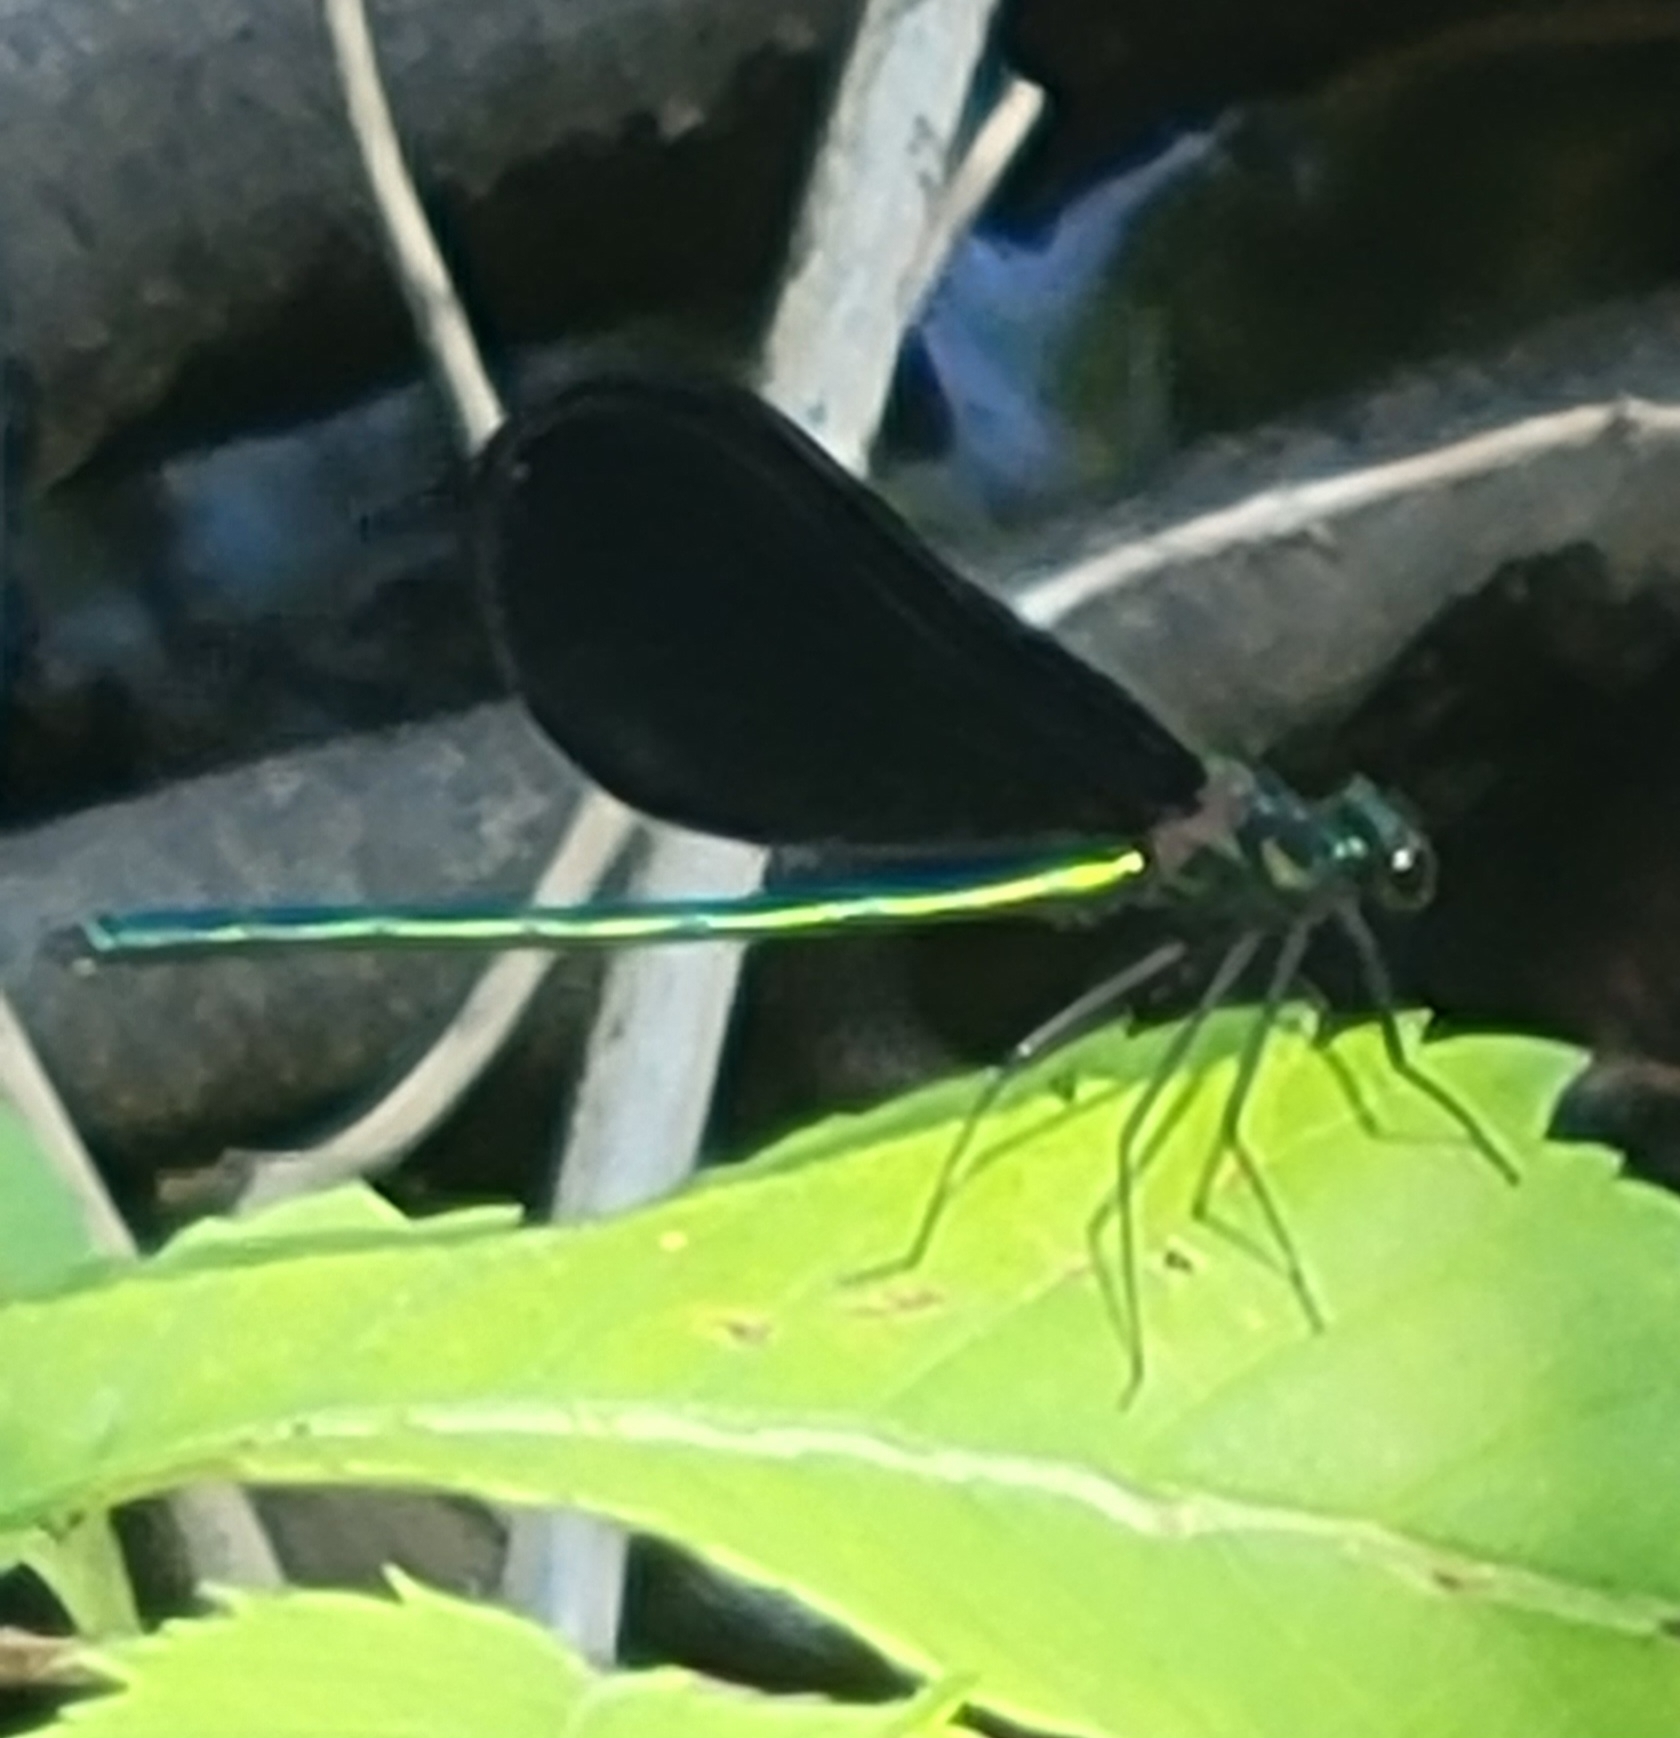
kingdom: Animalia
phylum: Arthropoda
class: Insecta
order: Odonata
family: Calopterygidae
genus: Calopteryx
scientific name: Calopteryx maculata
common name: Ebony jewelwing
